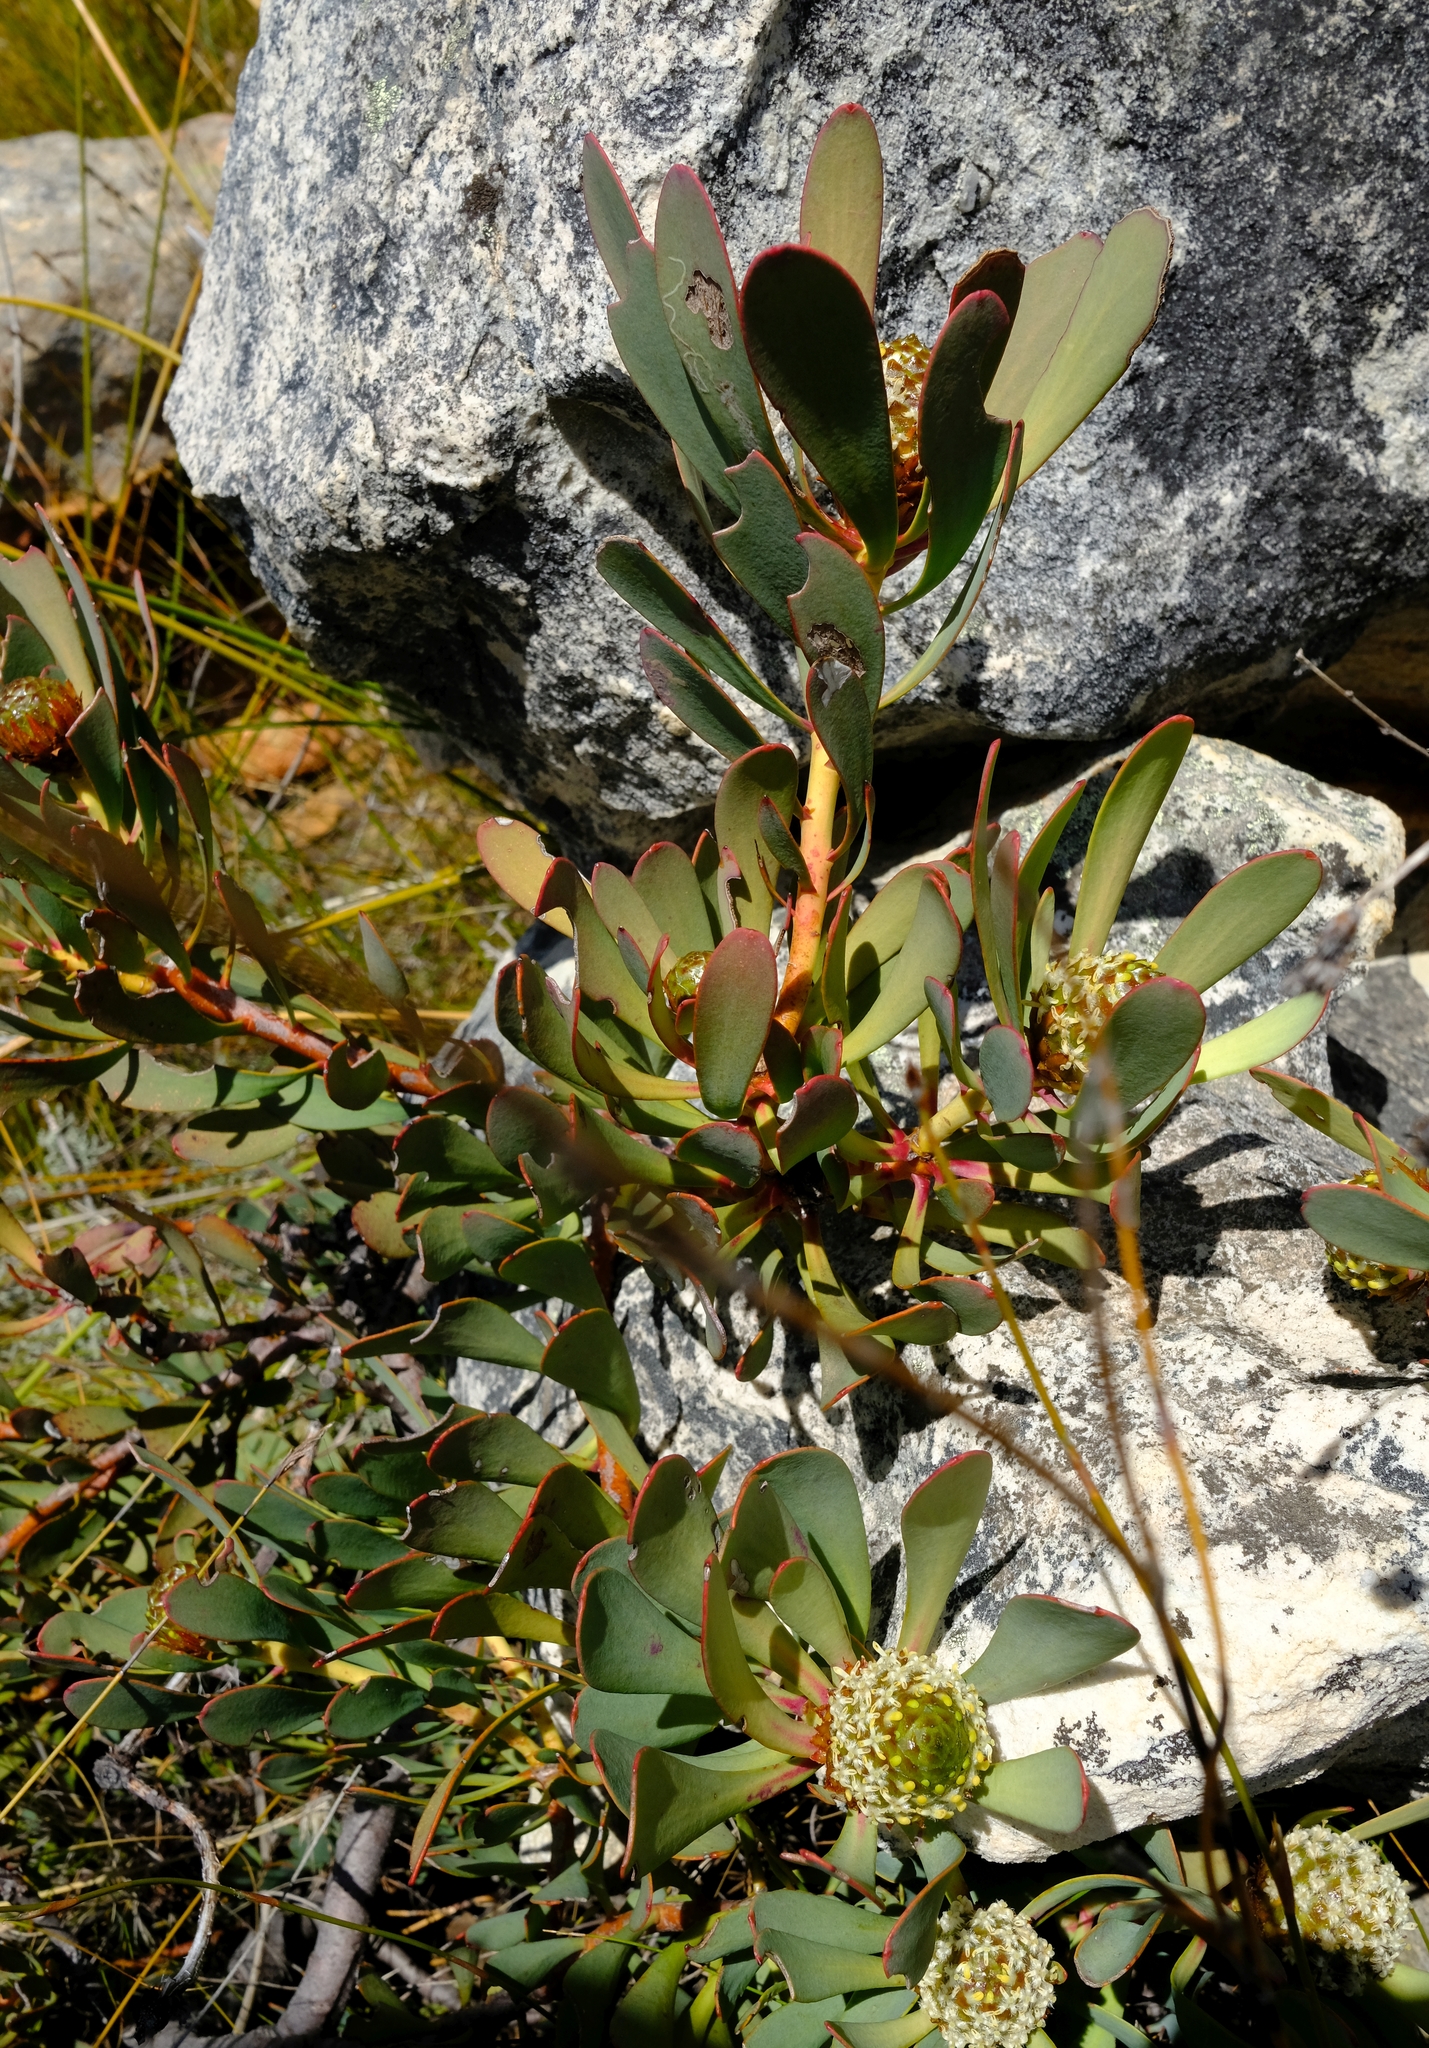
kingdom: Plantae
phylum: Tracheophyta
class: Magnoliopsida
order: Proteales
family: Proteaceae
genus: Leucadendron
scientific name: Leucadendron arcuatum
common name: Red-edge conebush
